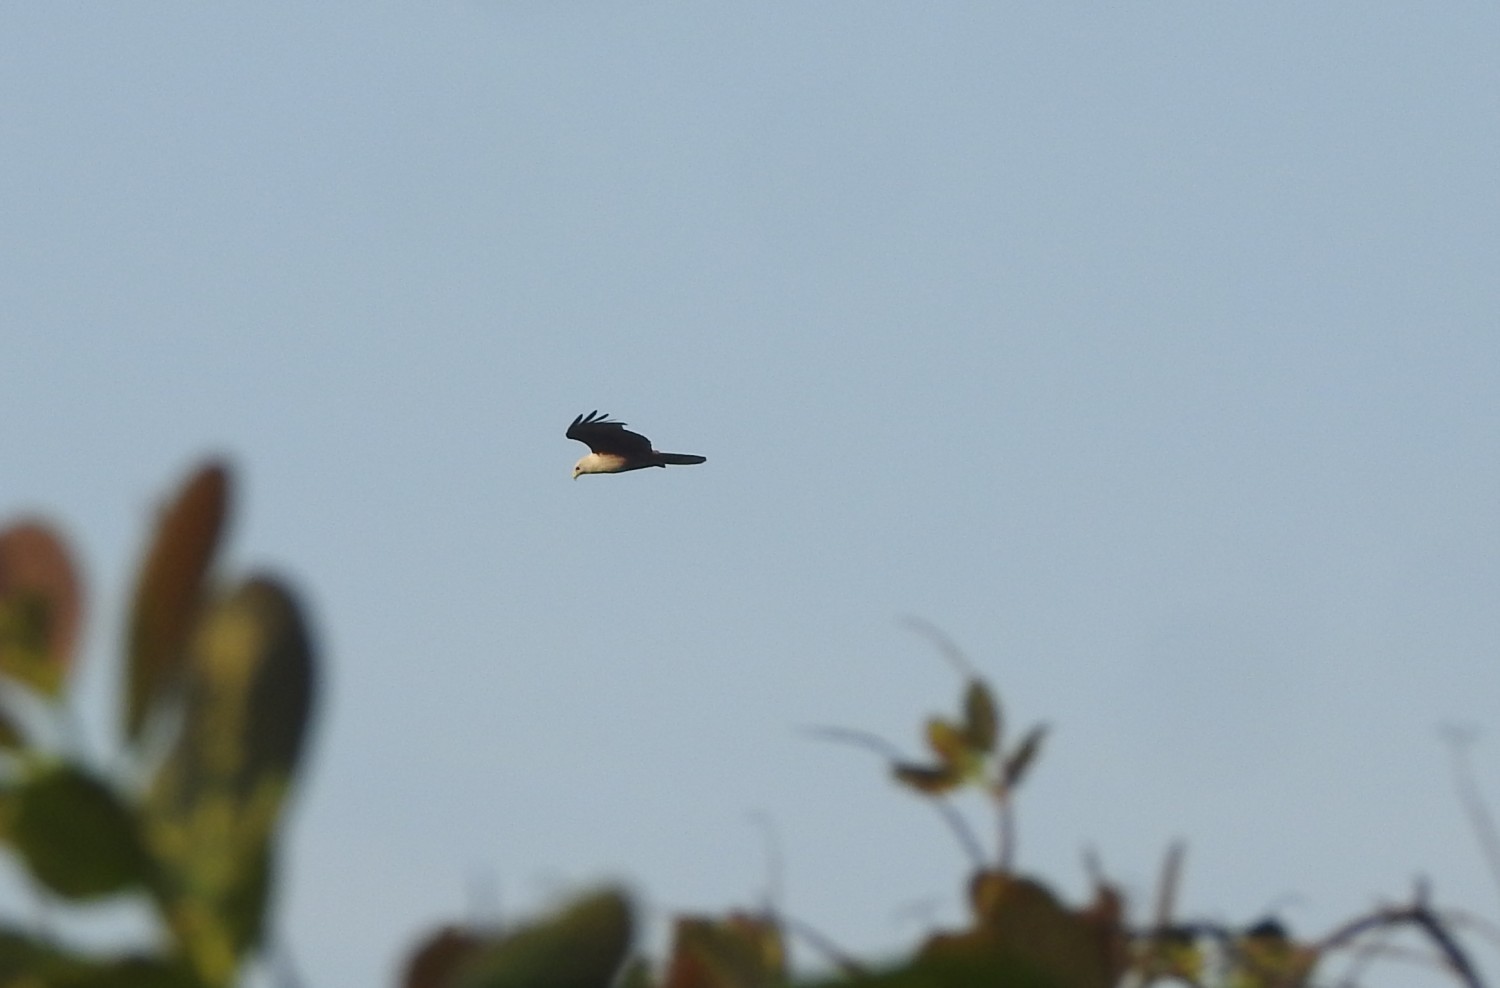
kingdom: Animalia
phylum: Chordata
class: Aves
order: Accipitriformes
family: Accipitridae
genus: Haliastur
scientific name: Haliastur indus
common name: Brahminy kite
